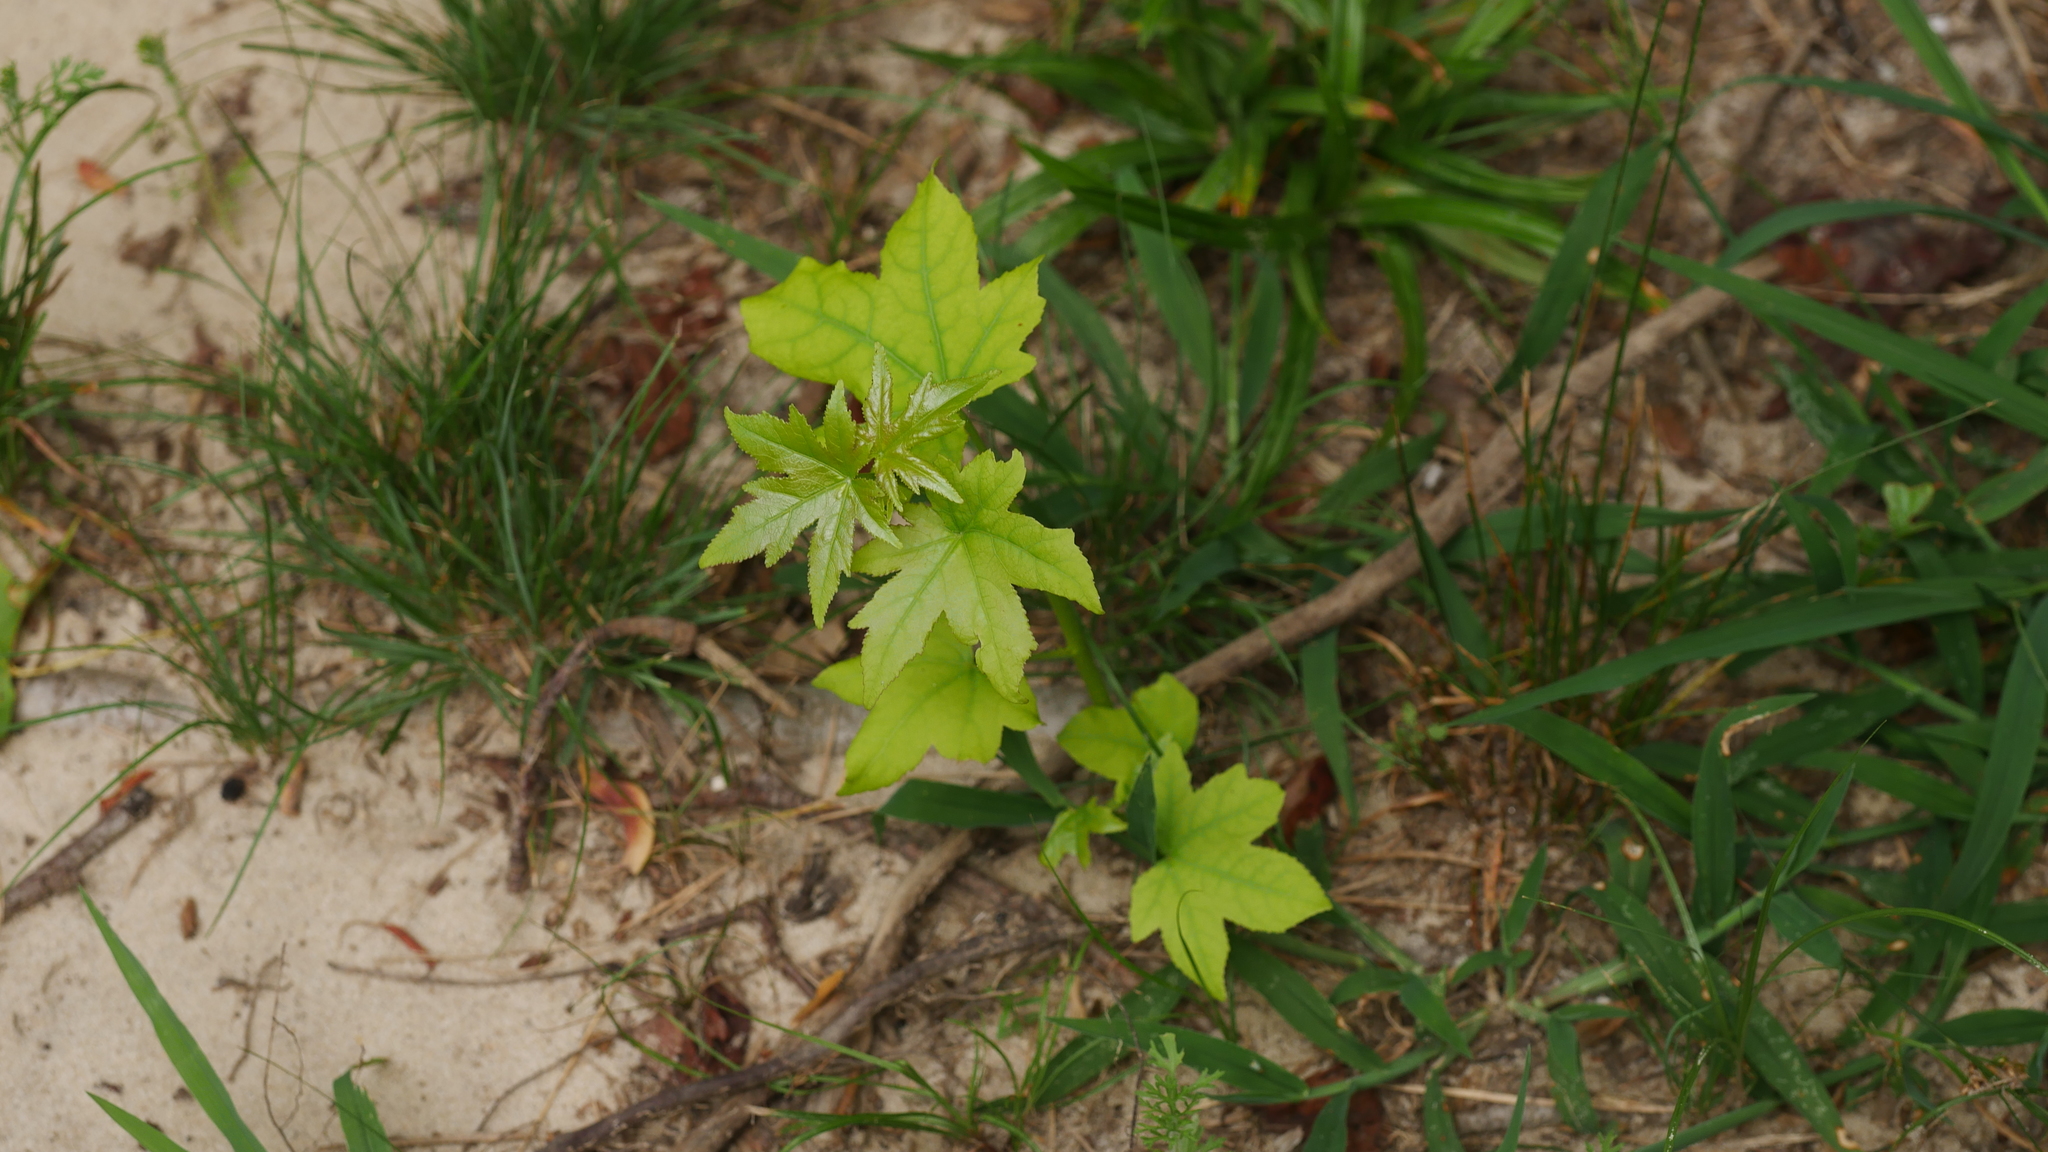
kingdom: Plantae
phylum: Tracheophyta
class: Magnoliopsida
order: Saxifragales
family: Altingiaceae
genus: Liquidambar
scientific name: Liquidambar styraciflua
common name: Sweet gum
